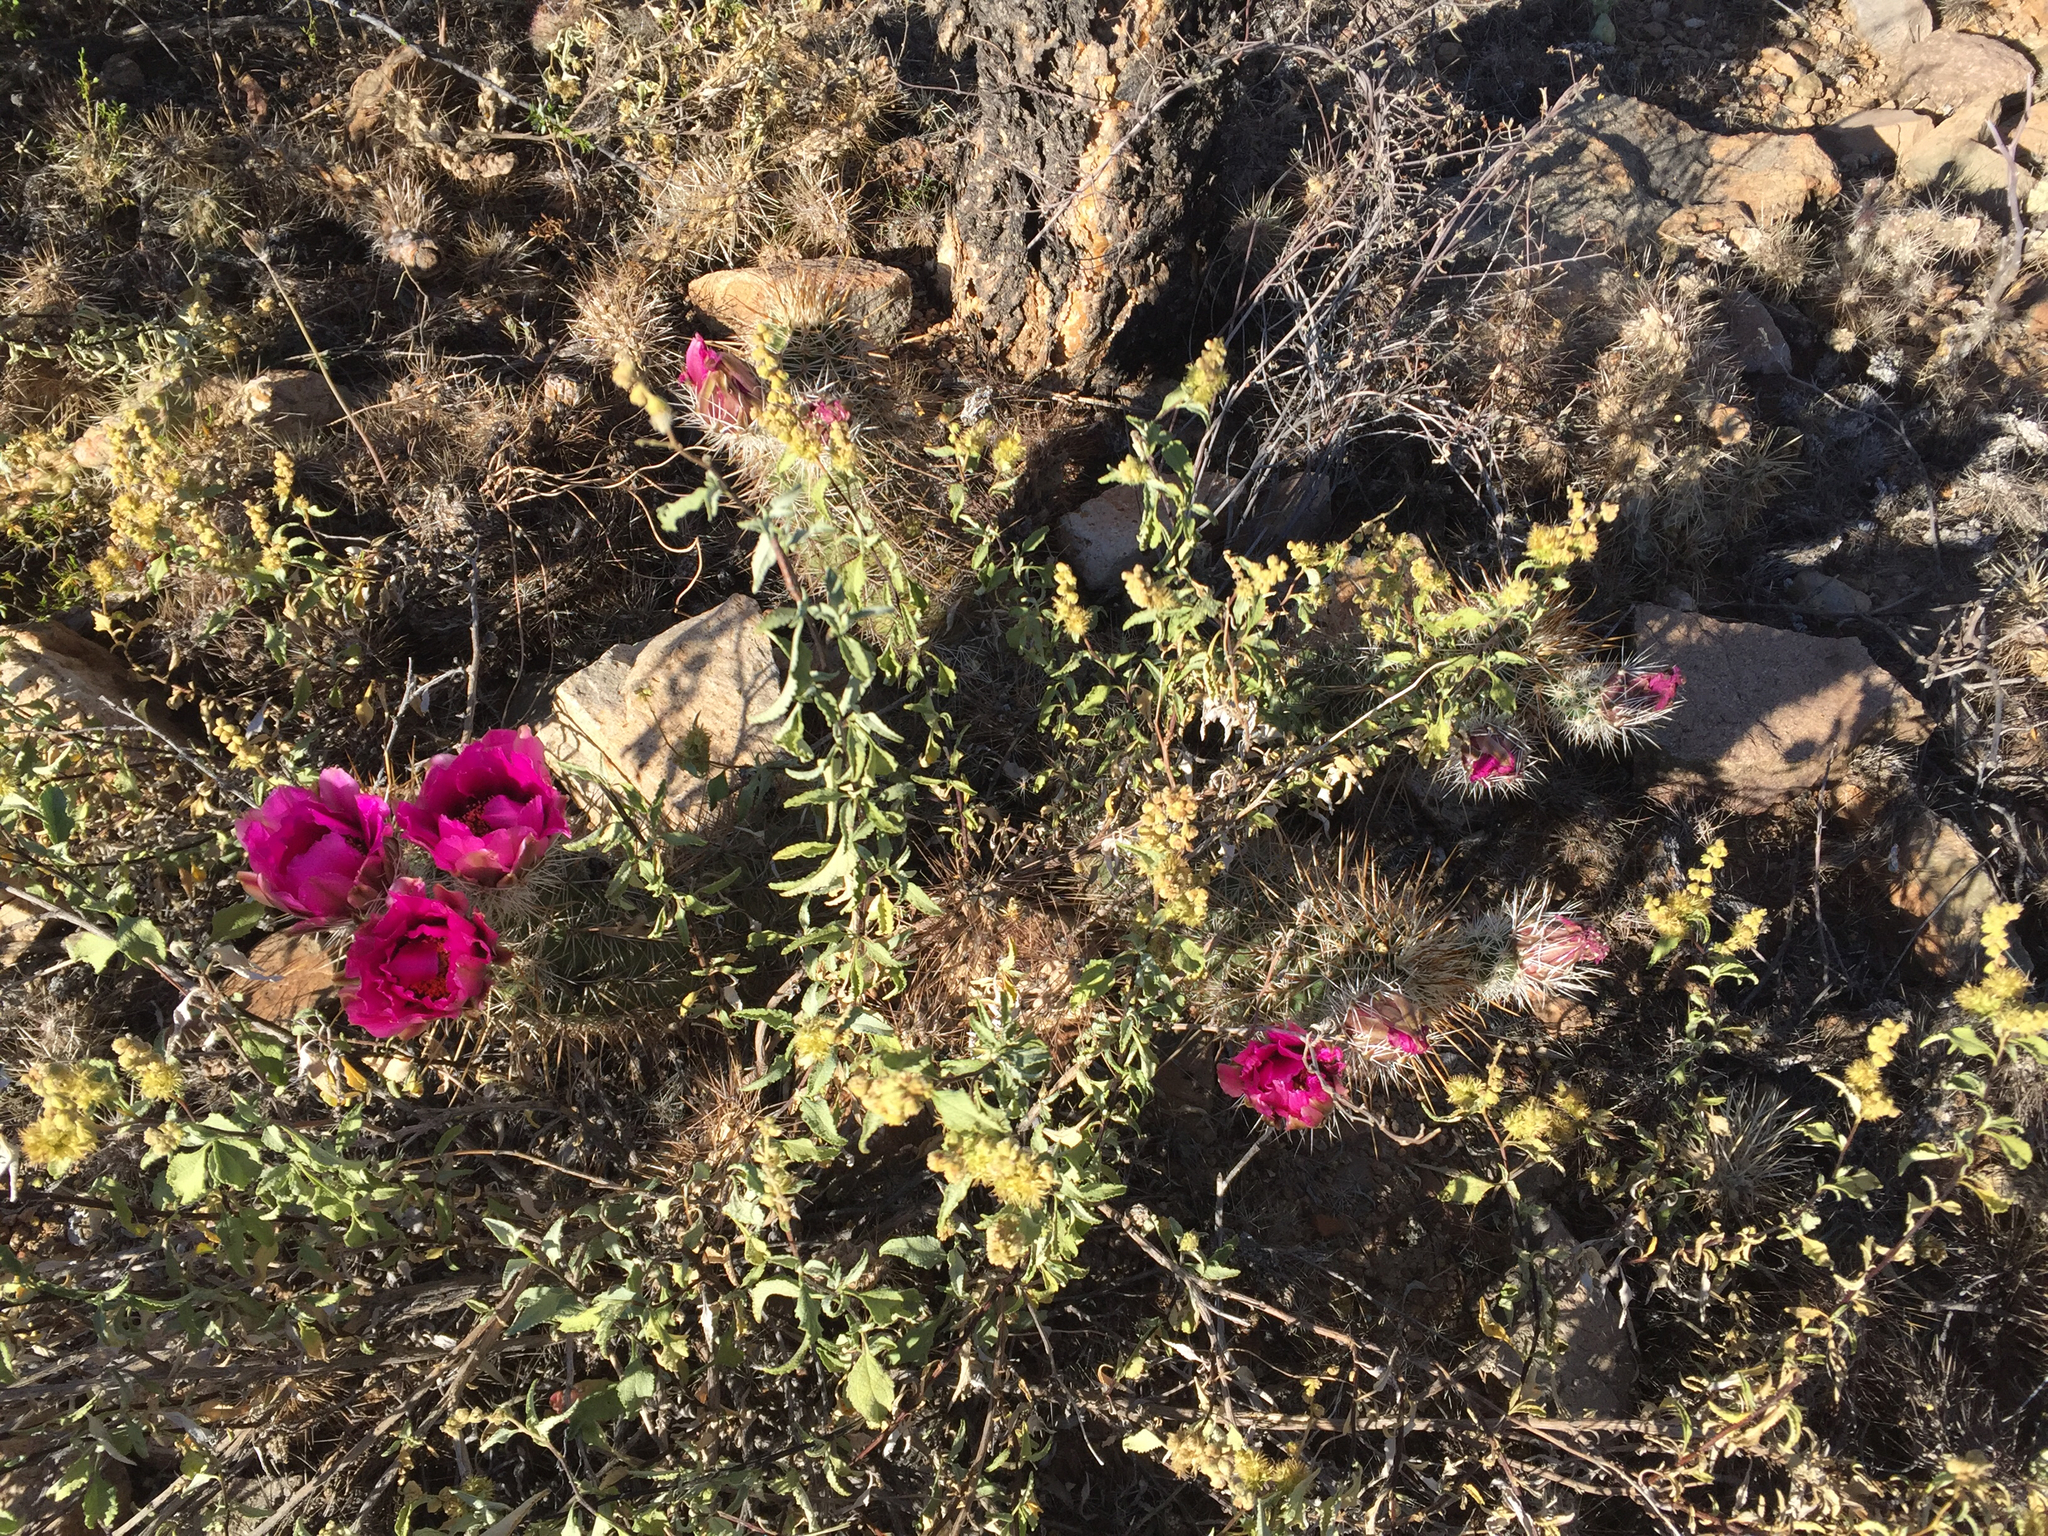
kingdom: Plantae
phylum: Tracheophyta
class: Magnoliopsida
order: Asterales
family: Asteraceae
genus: Ambrosia
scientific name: Ambrosia deltoidea
